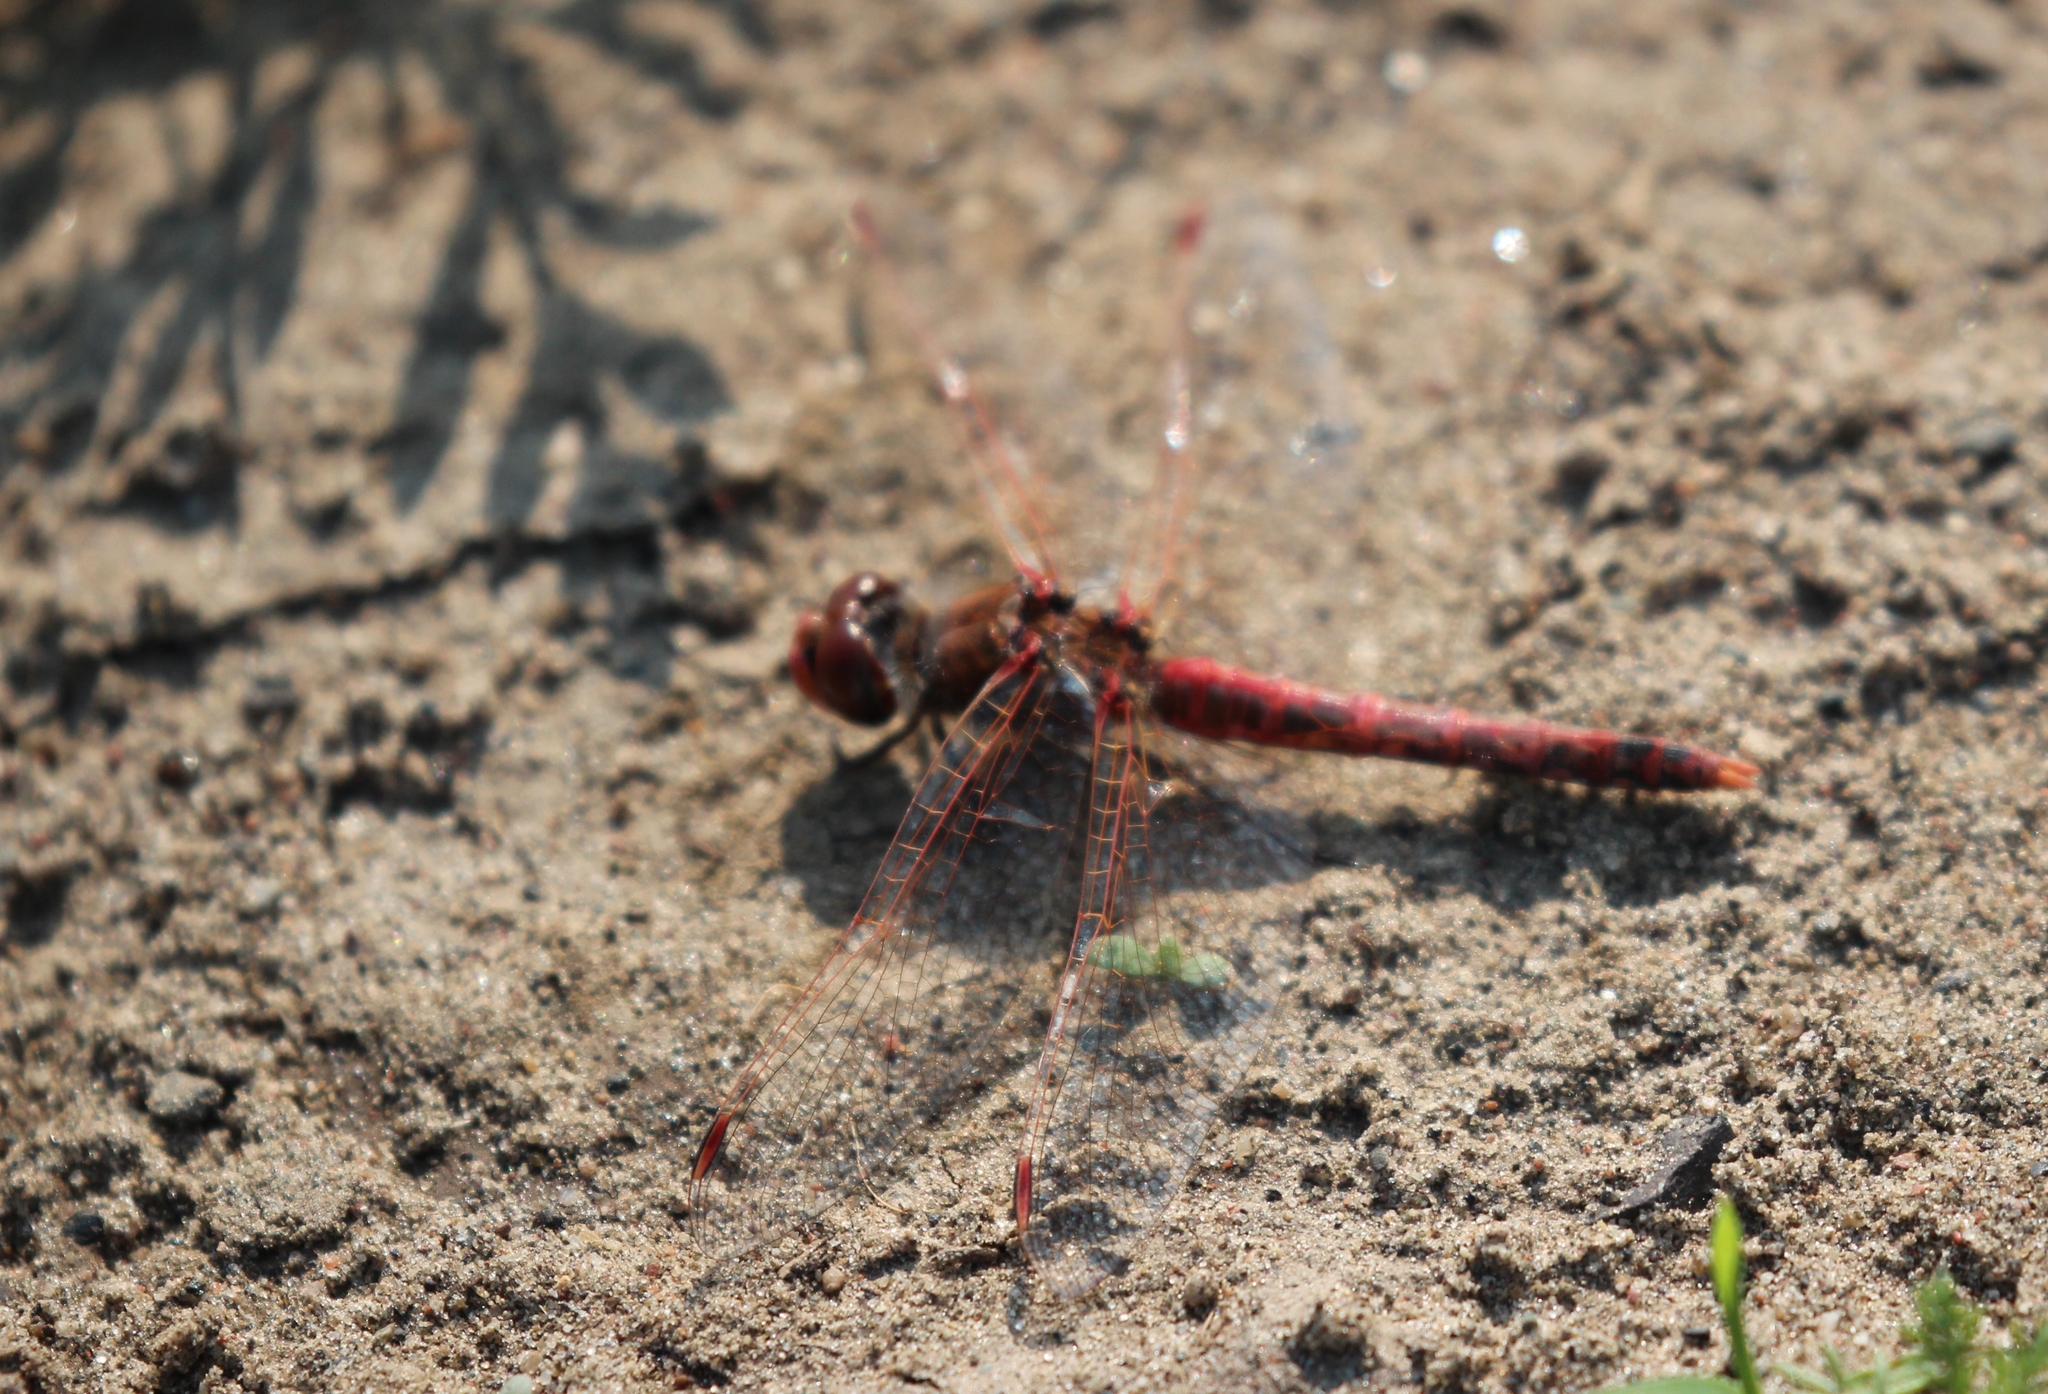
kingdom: Animalia
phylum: Arthropoda
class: Insecta
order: Odonata
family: Libellulidae
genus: Sympetrum
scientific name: Sympetrum corruptum
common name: Variegated meadowhawk
